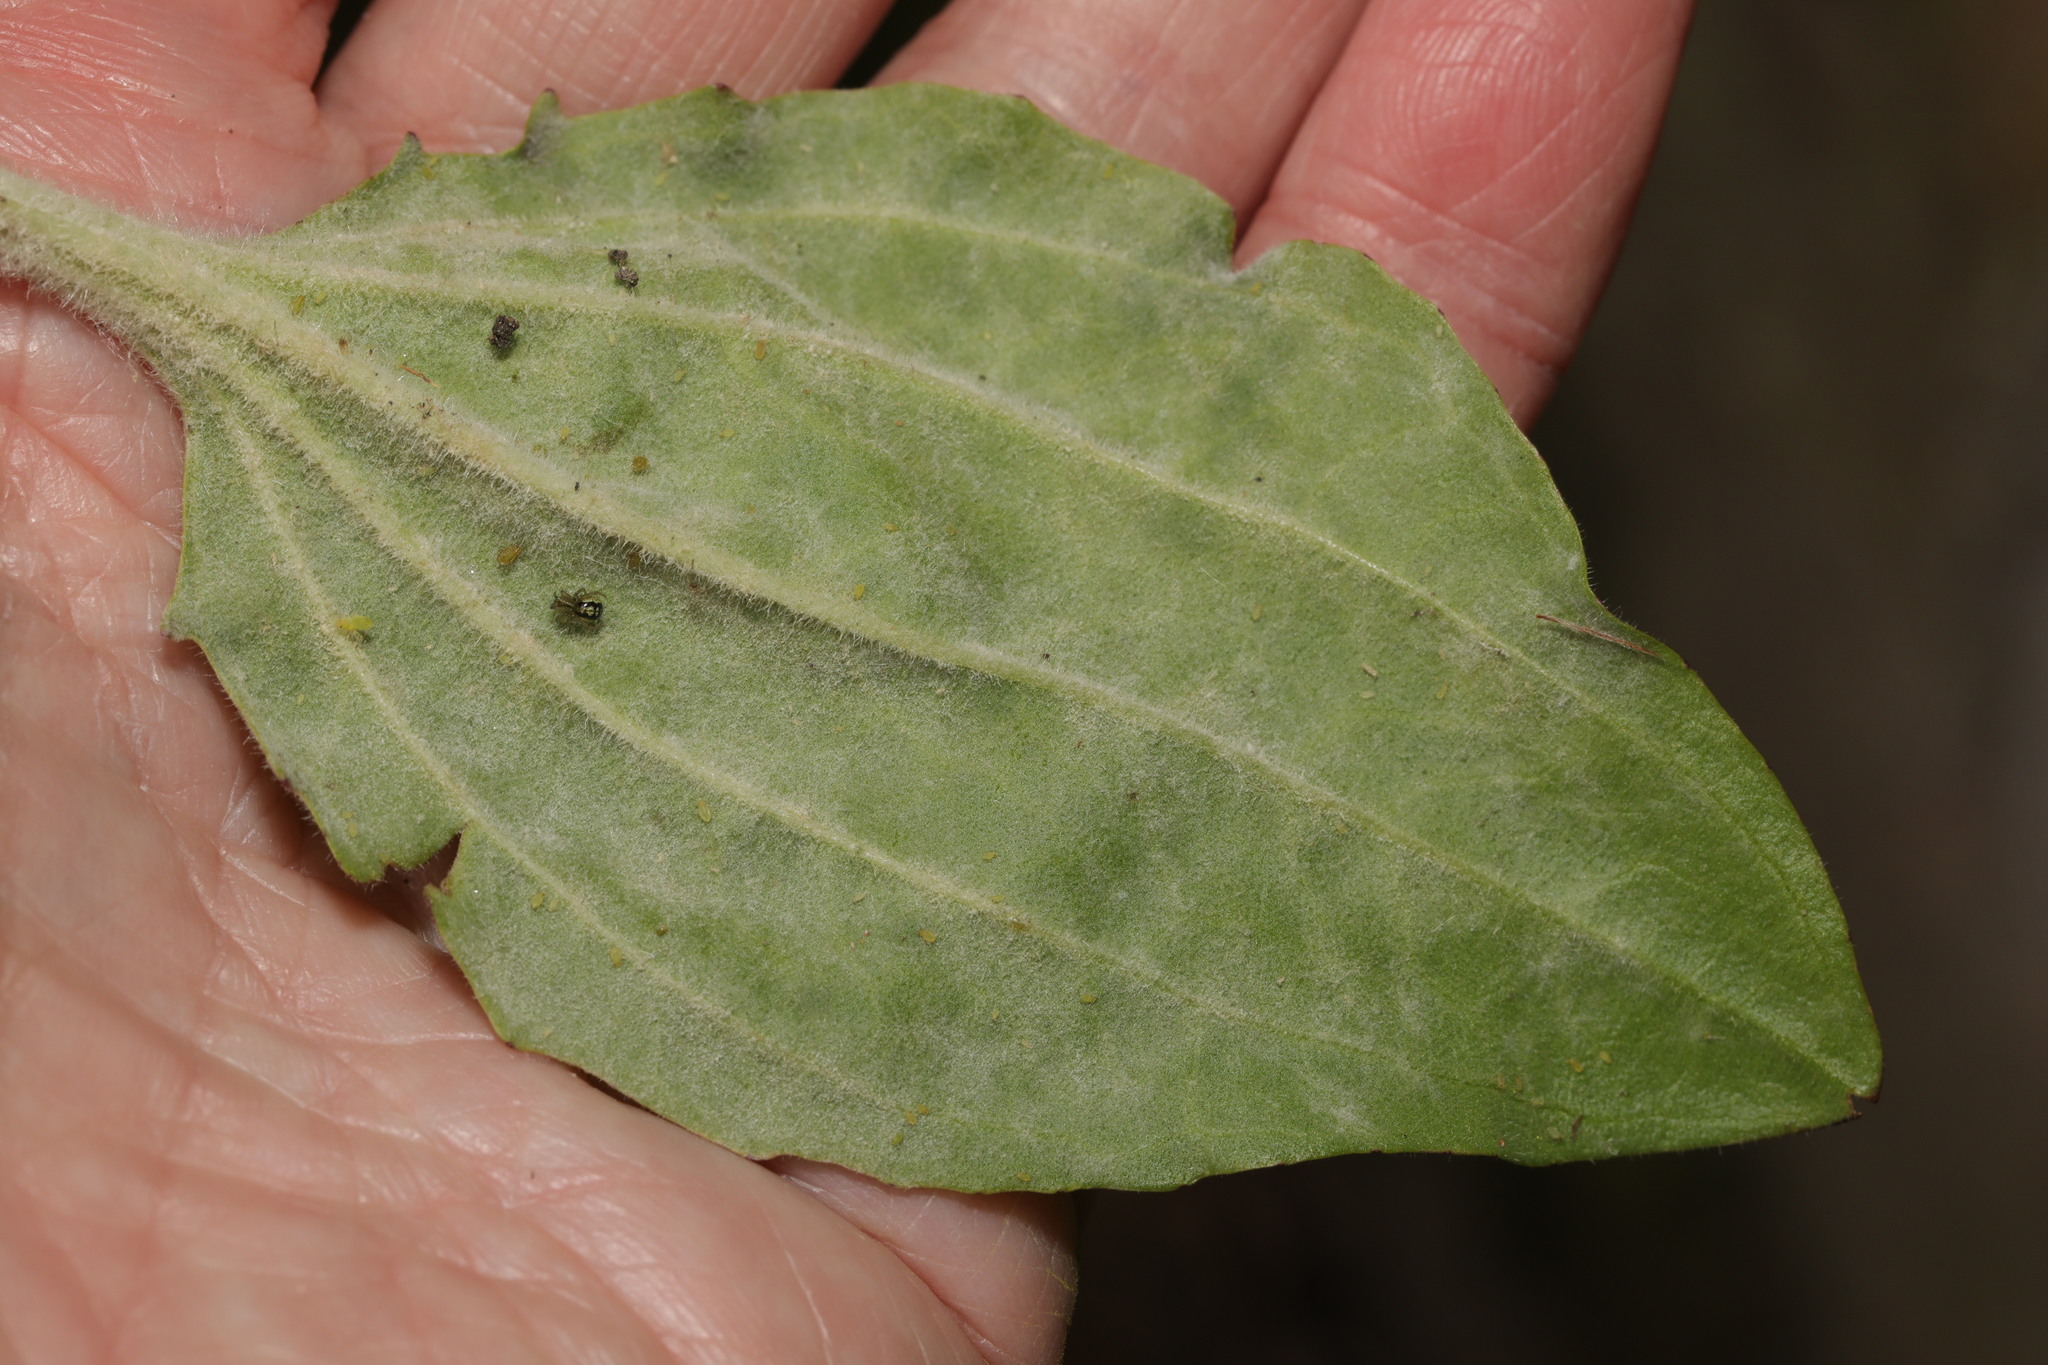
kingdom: Fungi
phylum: Ascomycota
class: Leotiomycetes
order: Helotiales
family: Erysiphaceae
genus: Golovinomyces
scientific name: Golovinomyces sordidus
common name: Plantain mildew
